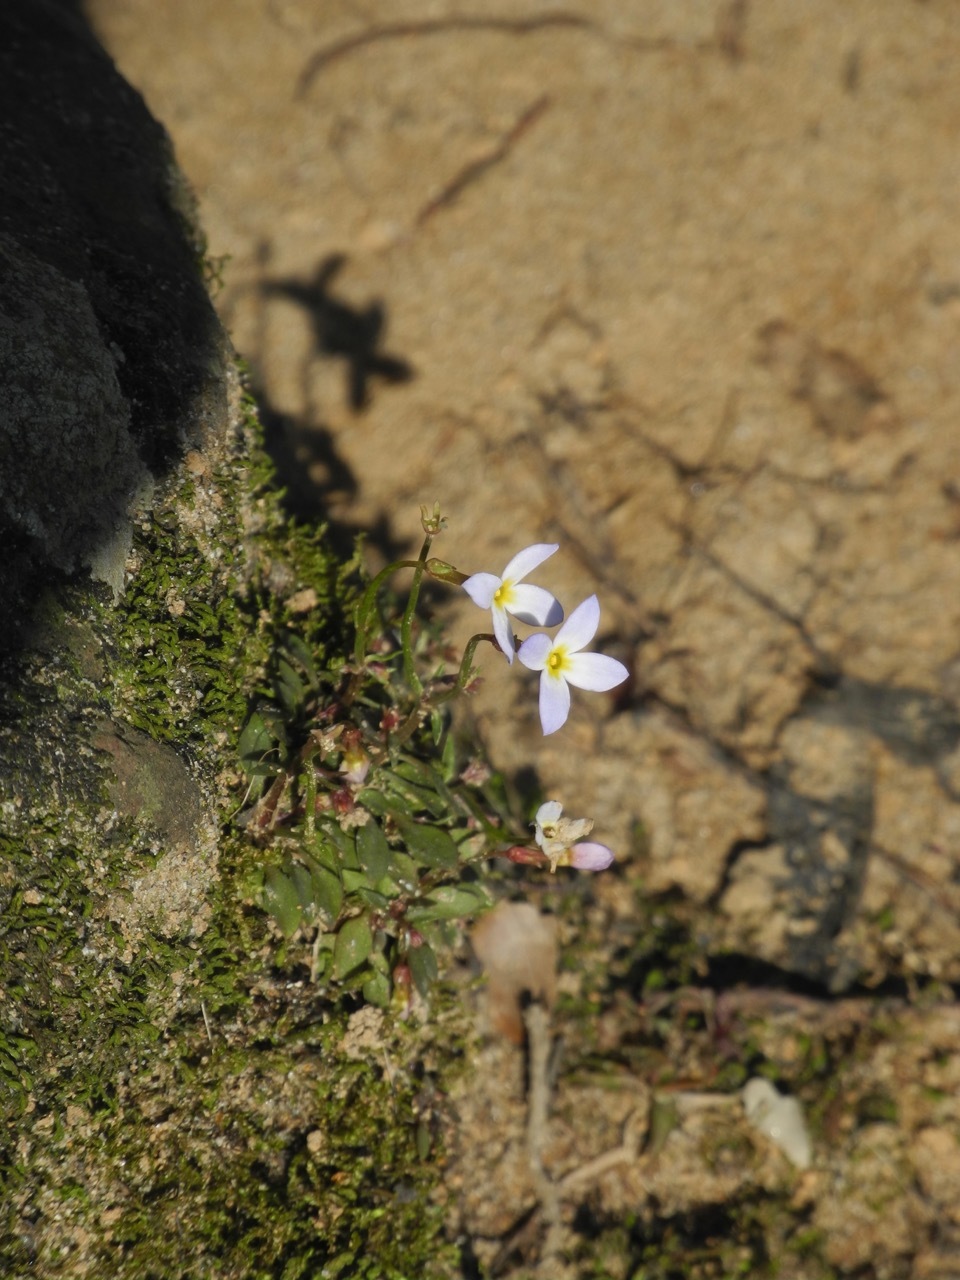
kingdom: Plantae
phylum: Tracheophyta
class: Magnoliopsida
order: Gentianales
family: Rubiaceae
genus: Houstonia
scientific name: Houstonia caerulea
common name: Bluets
